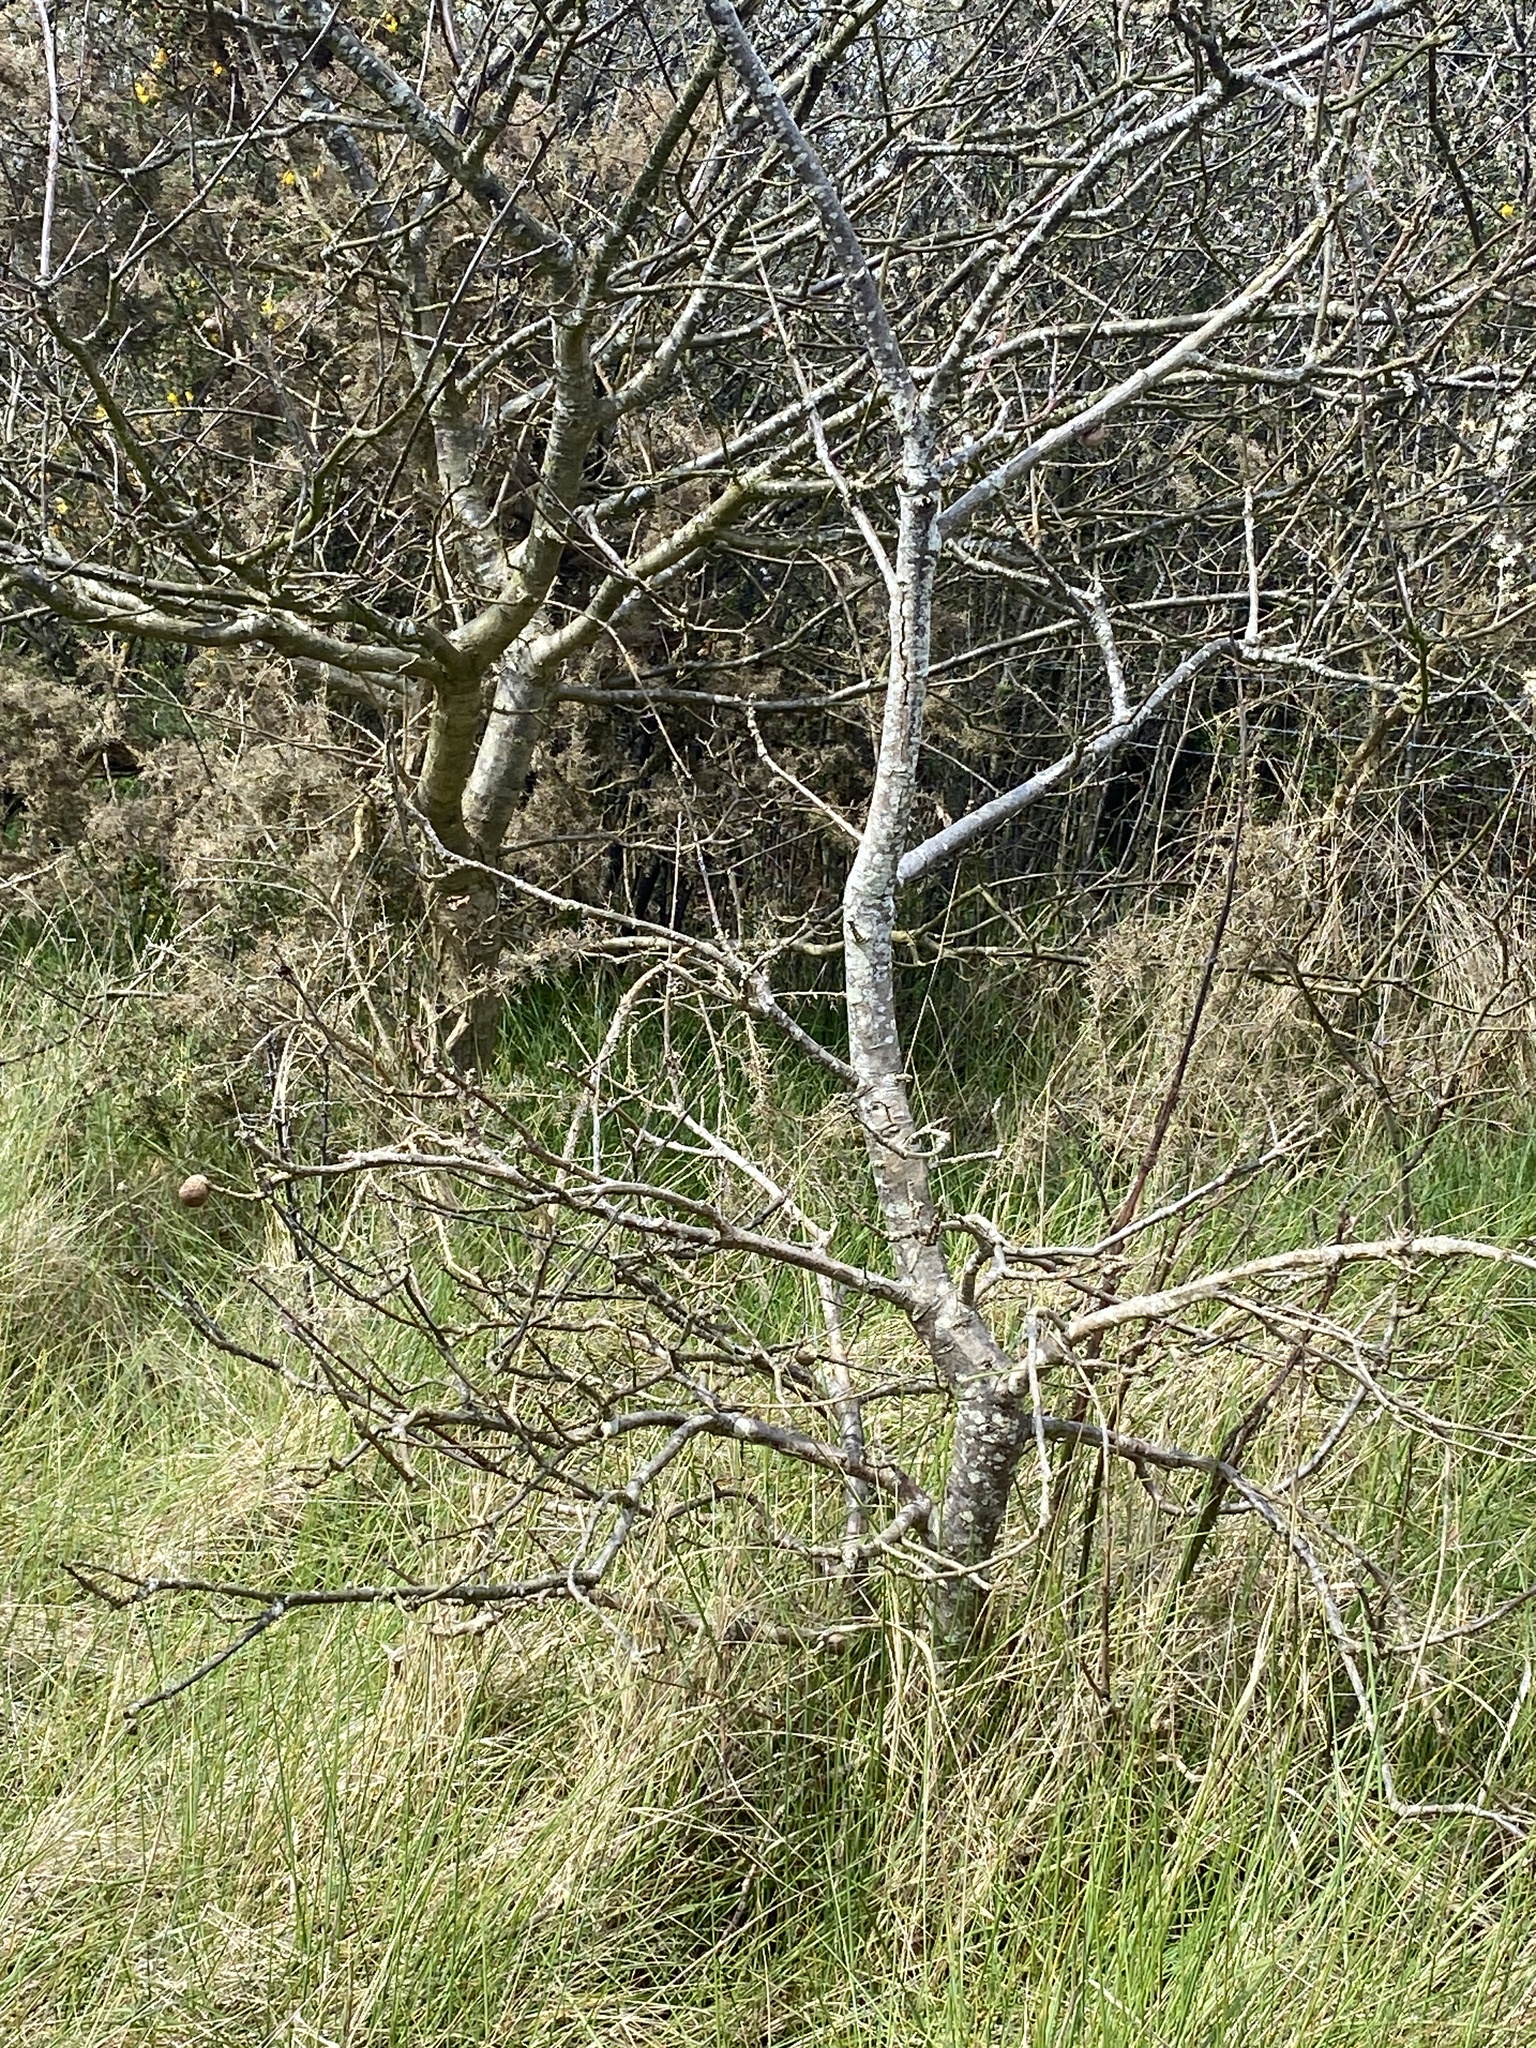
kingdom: Animalia
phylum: Arthropoda
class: Insecta
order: Hymenoptera
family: Cynipidae
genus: Andricus
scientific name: Andricus kollari
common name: Marble gall
